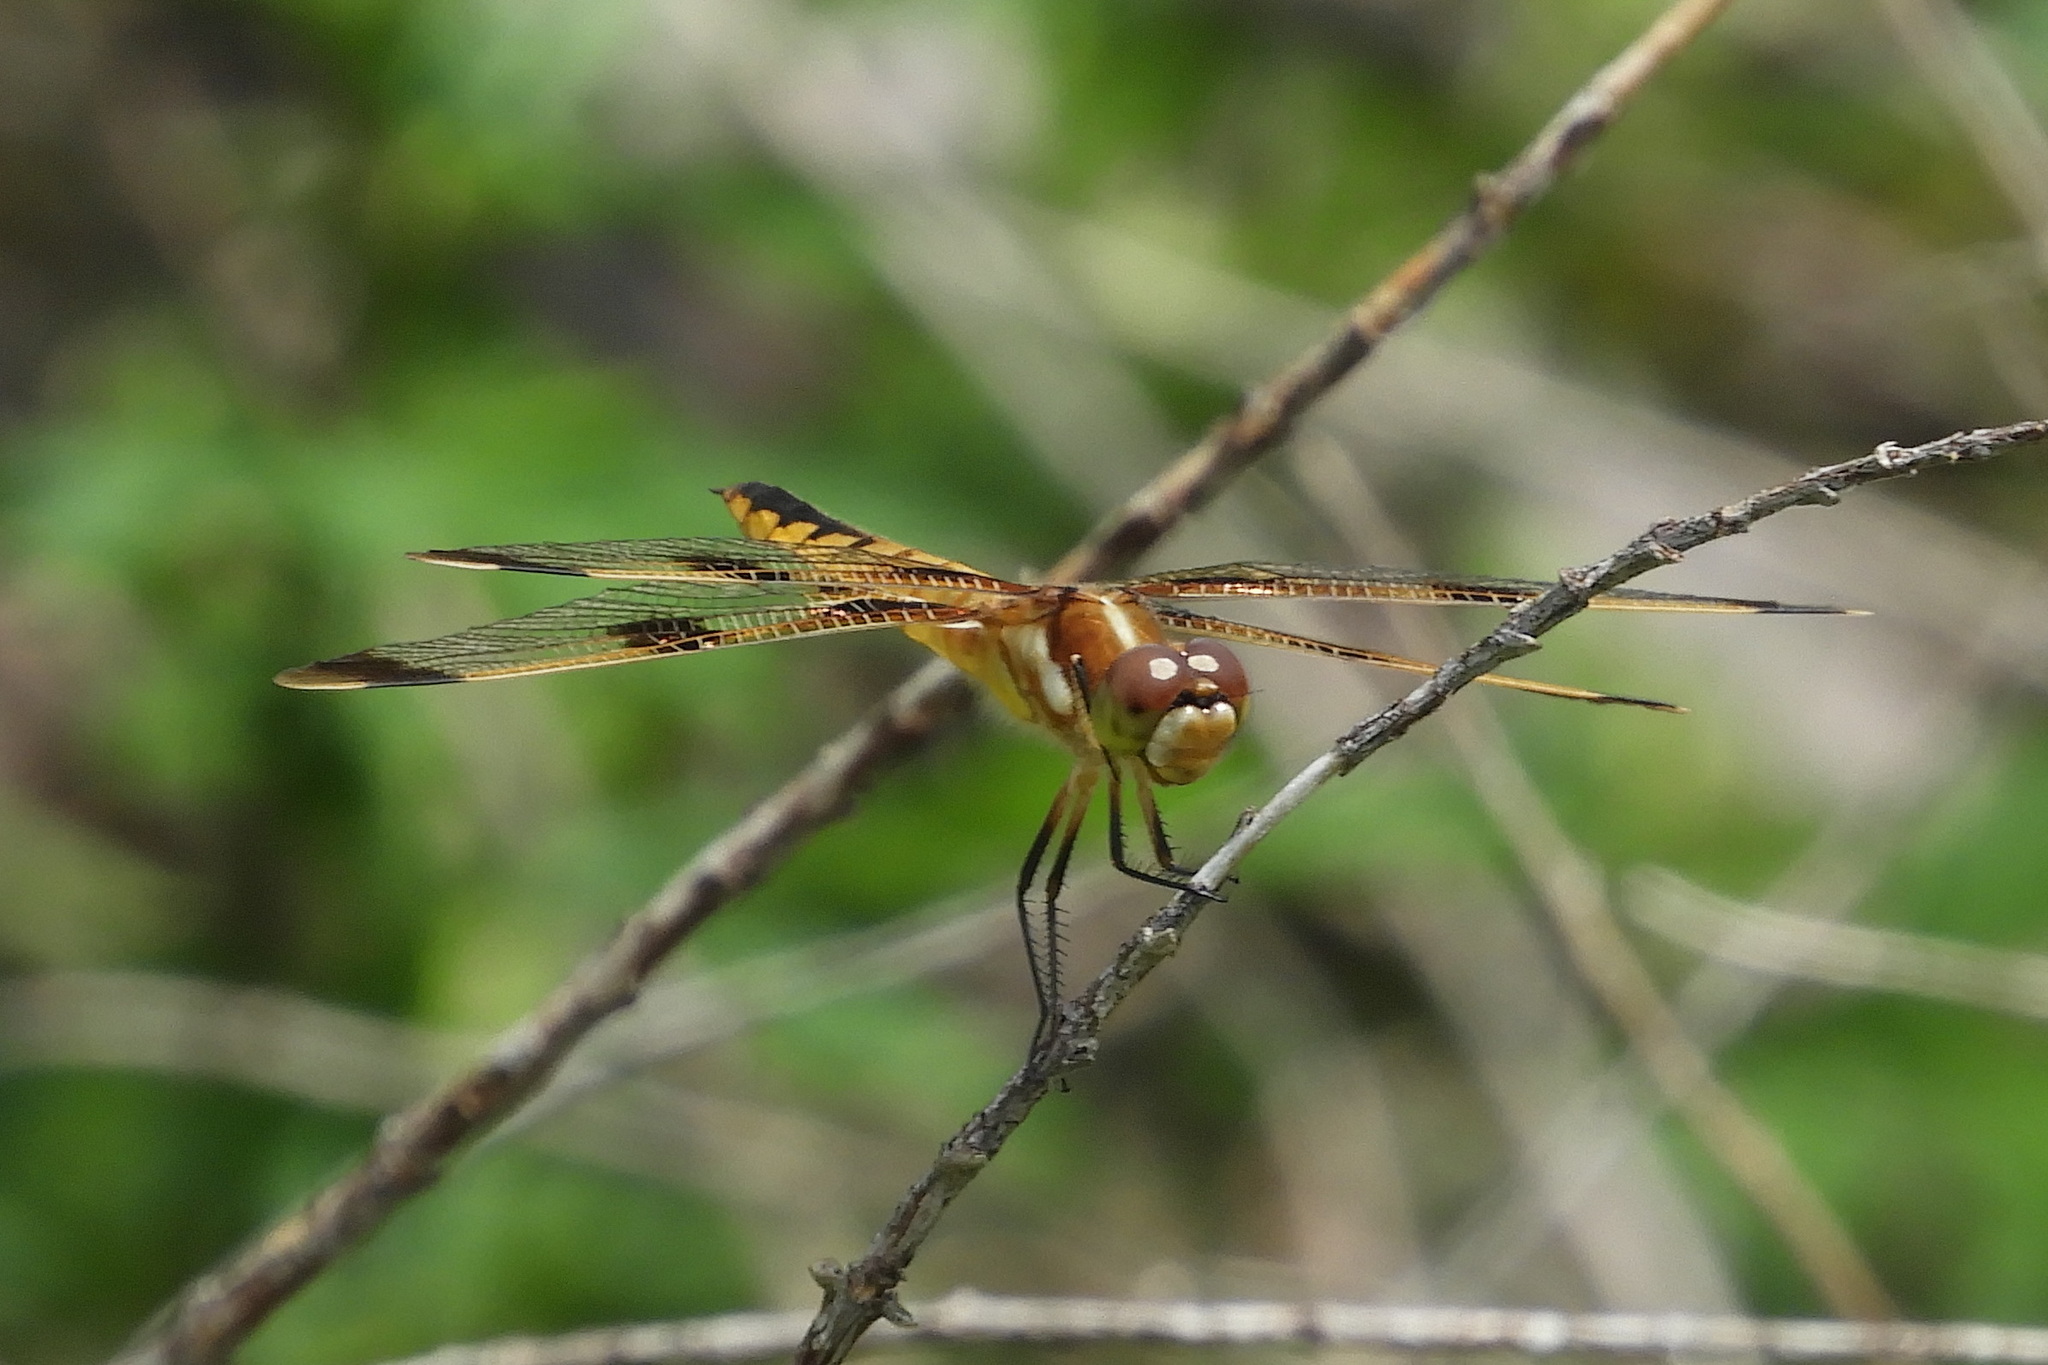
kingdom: Animalia
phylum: Arthropoda
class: Insecta
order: Odonata
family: Libellulidae
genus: Libellula
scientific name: Libellula semifasciata
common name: Painted skimmer
